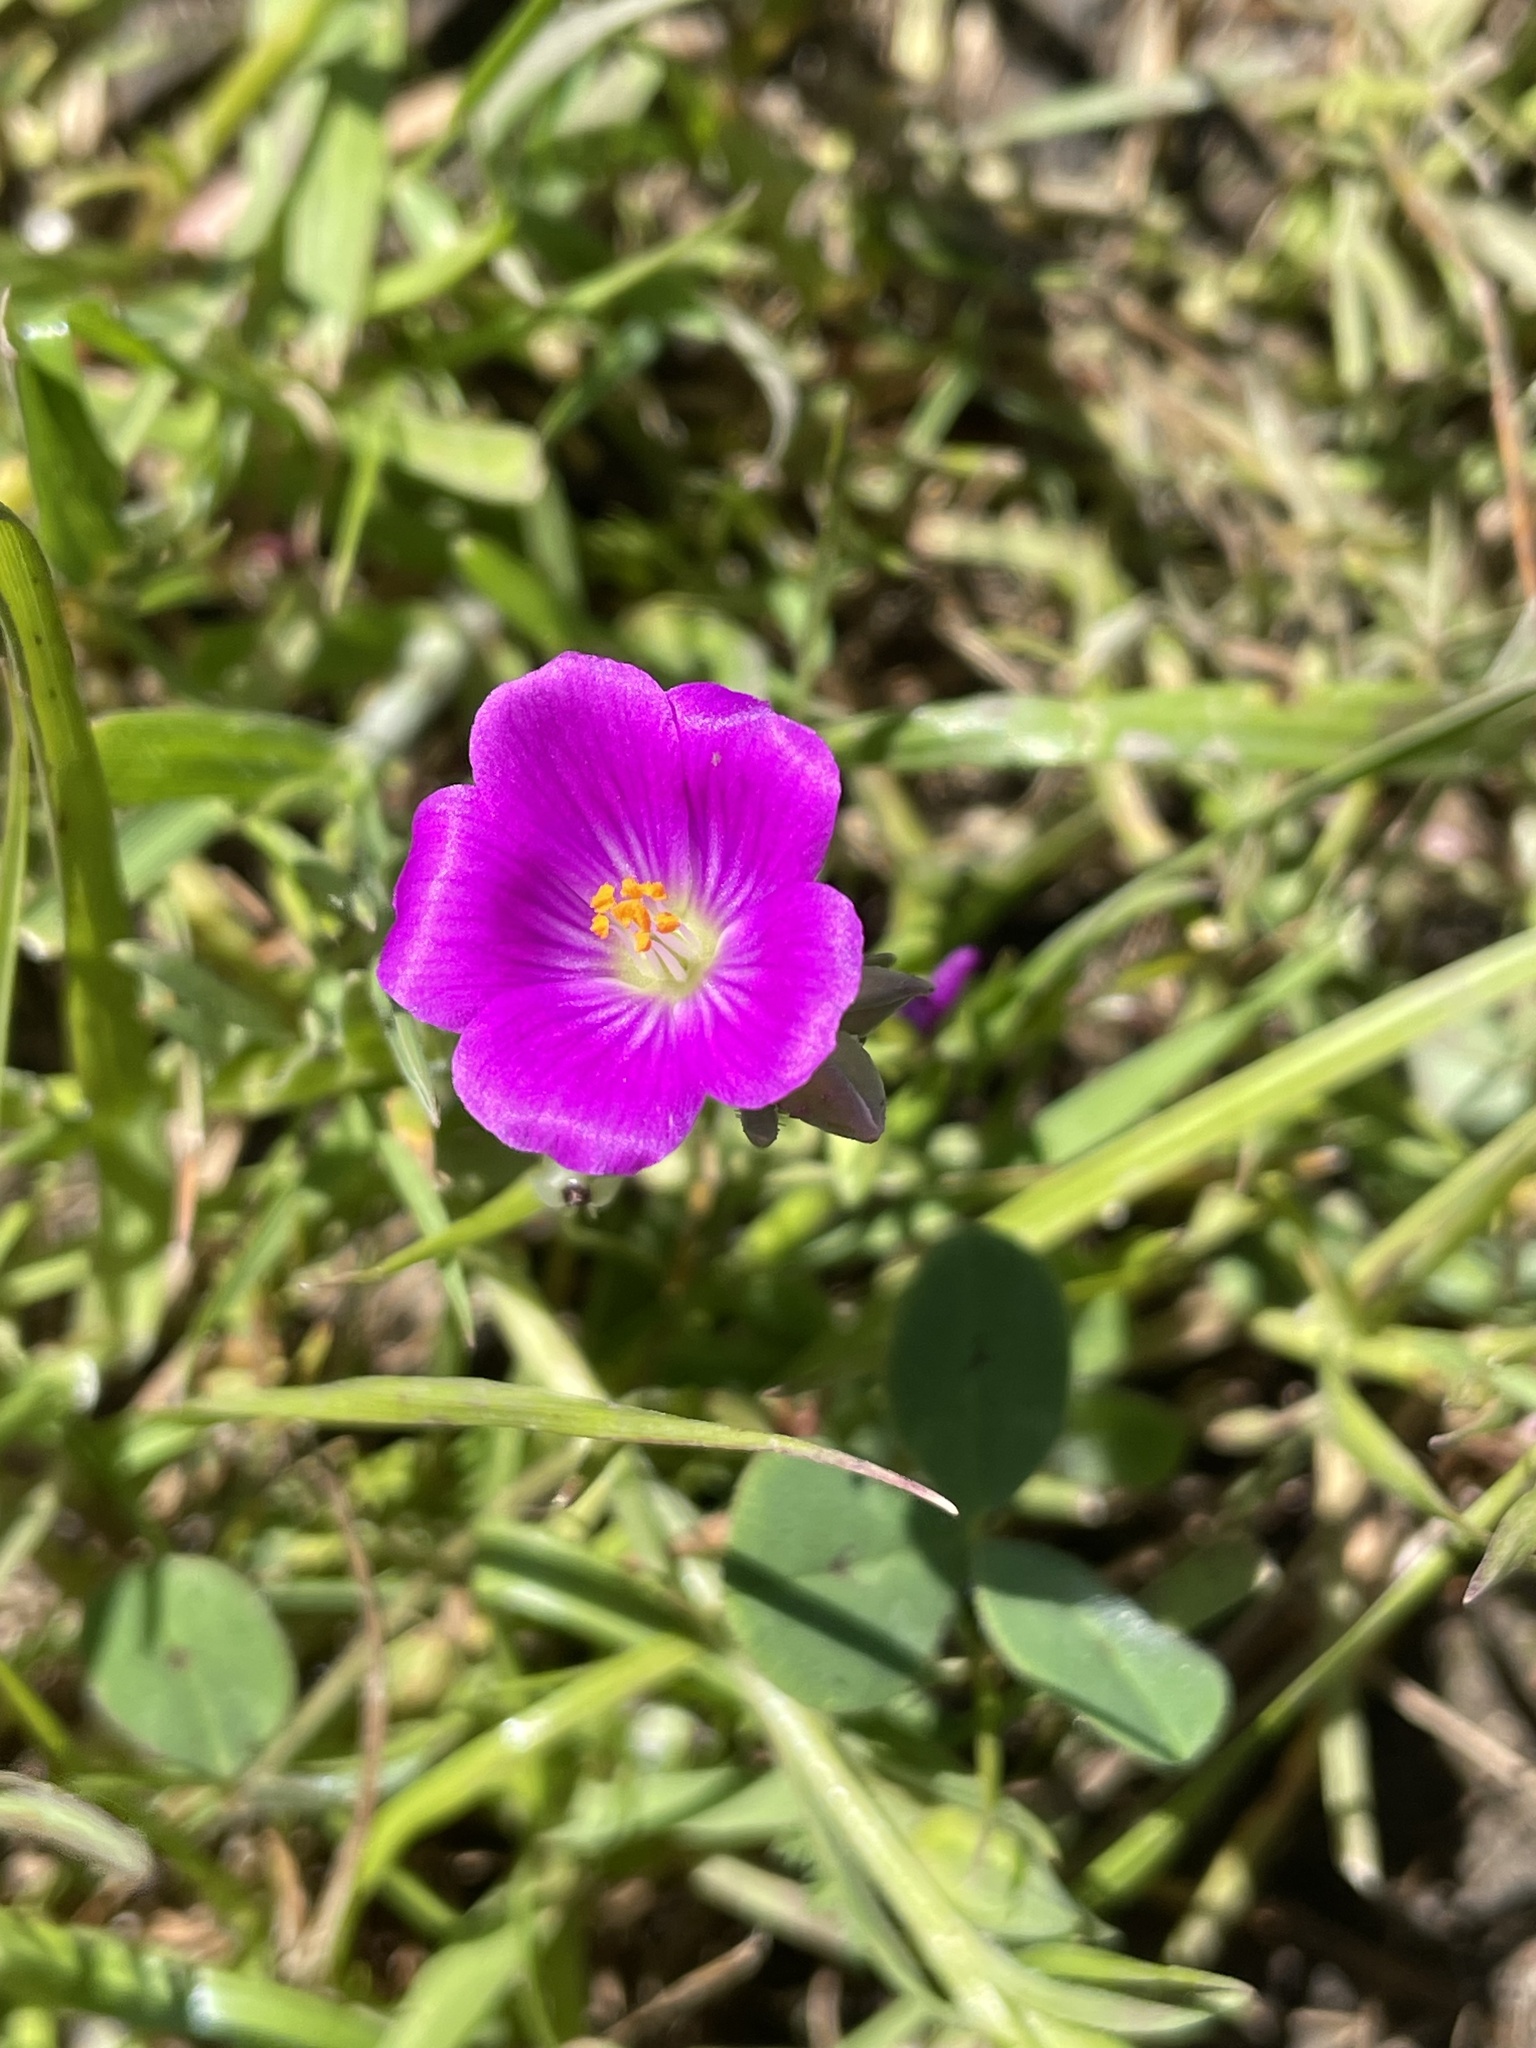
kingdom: Plantae
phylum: Tracheophyta
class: Magnoliopsida
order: Caryophyllales
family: Montiaceae
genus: Calandrinia
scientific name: Calandrinia menziesii
